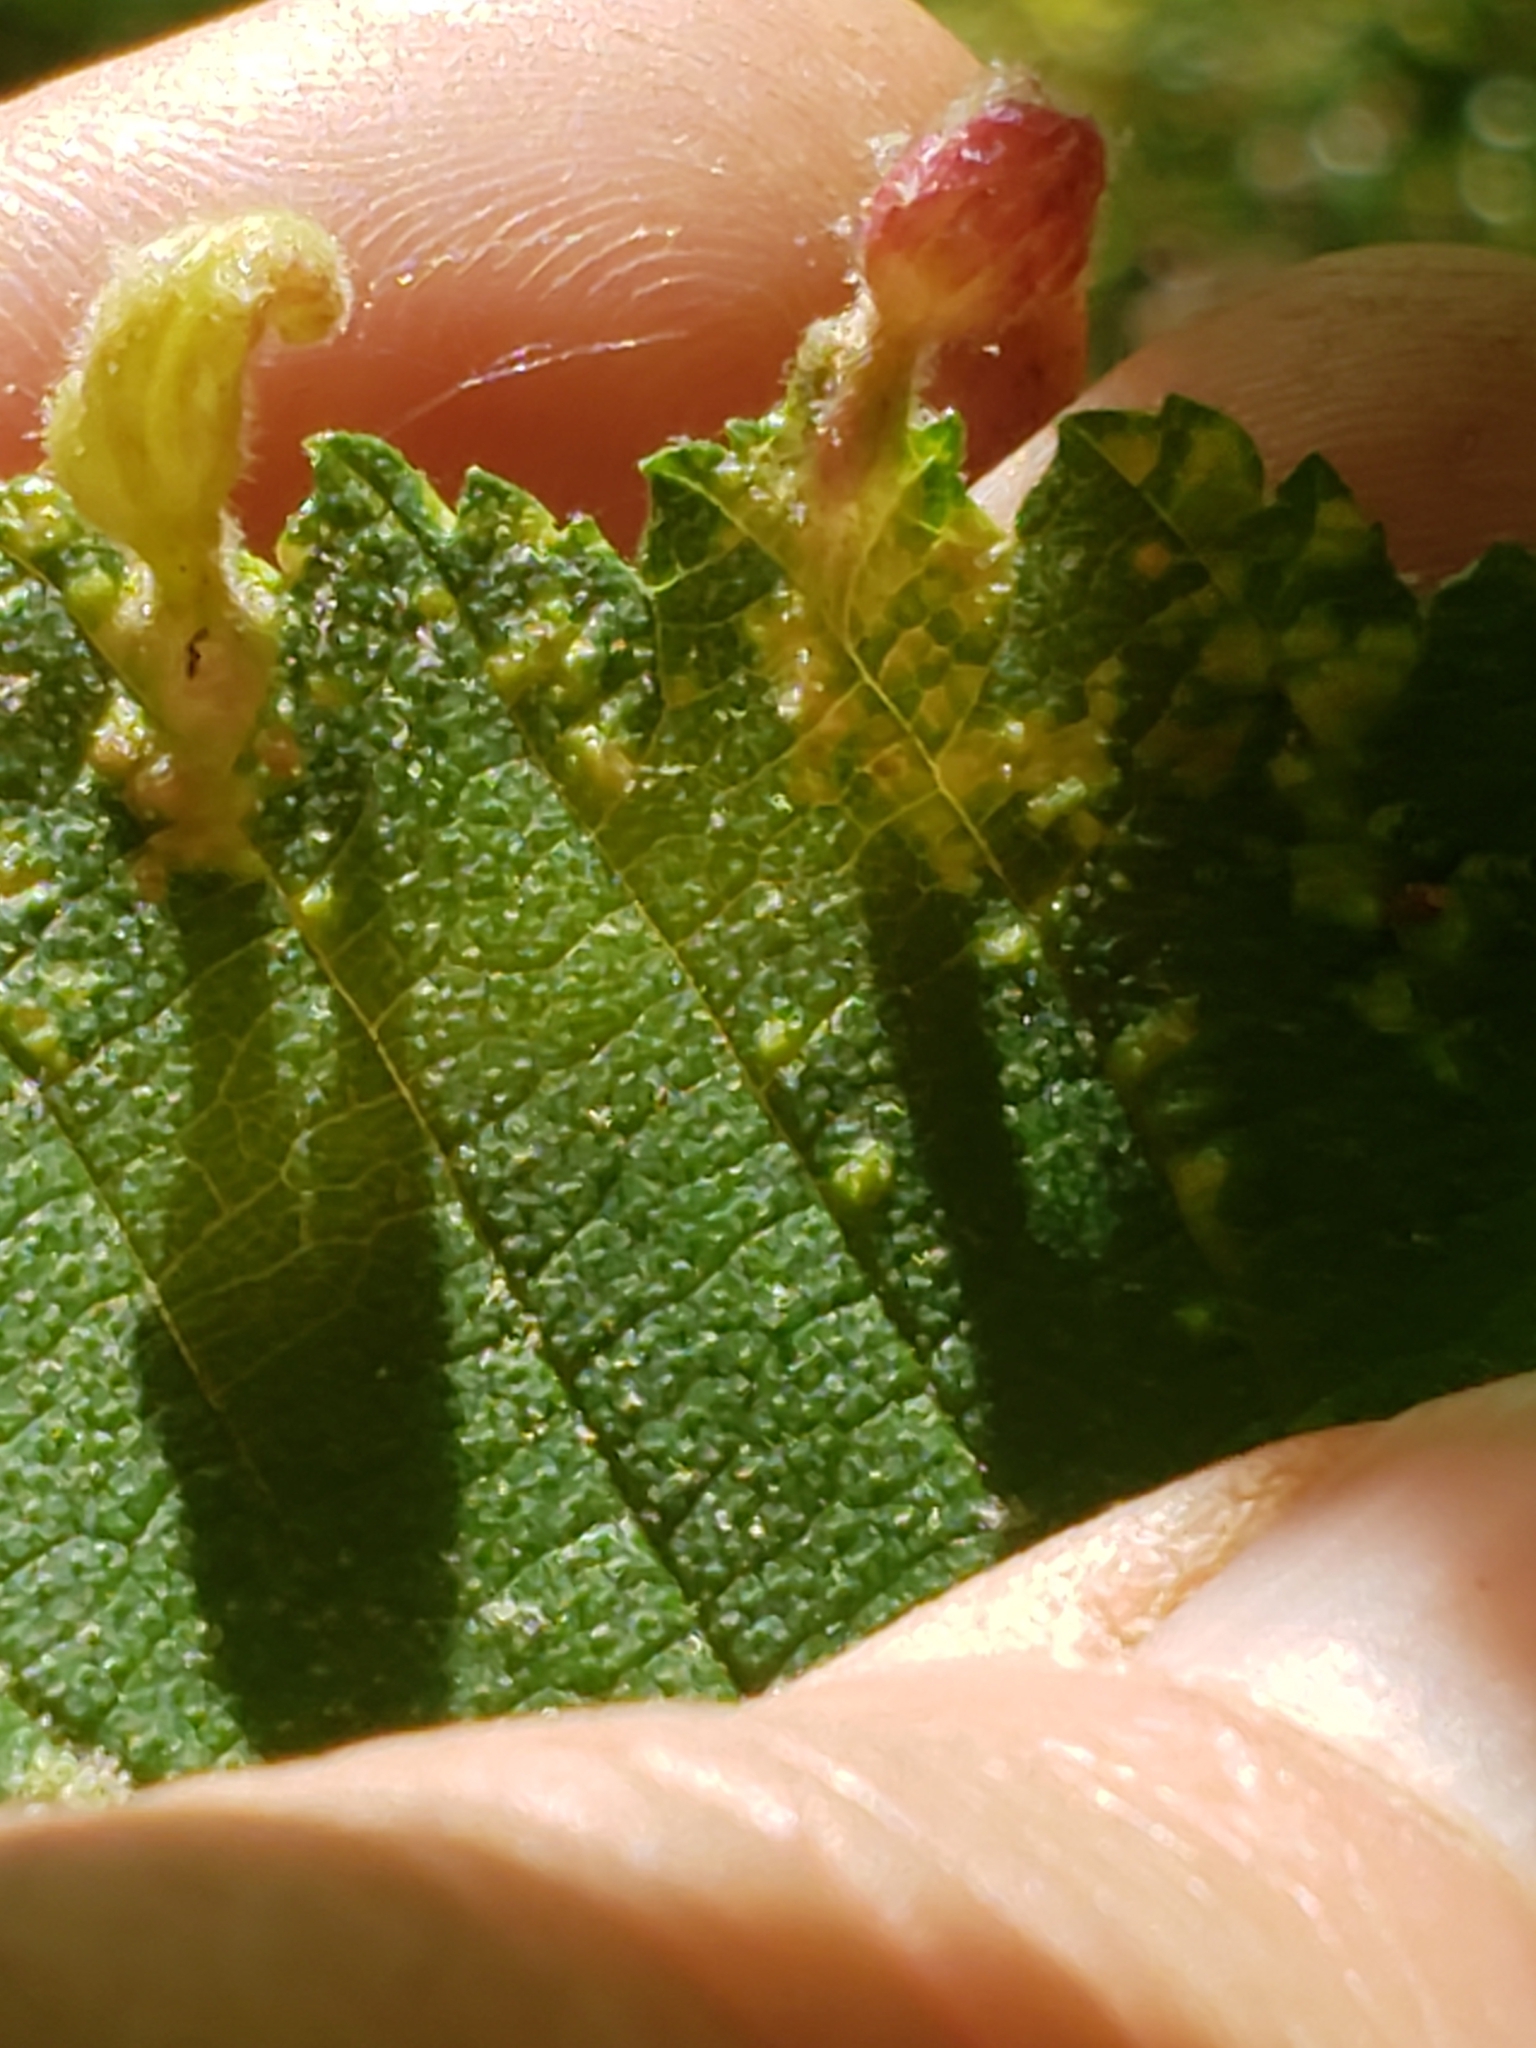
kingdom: Animalia
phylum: Arthropoda
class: Insecta
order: Hemiptera
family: Aphididae
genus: Tetraneura
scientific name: Tetraneura nigriabdominalis
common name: Aphid
